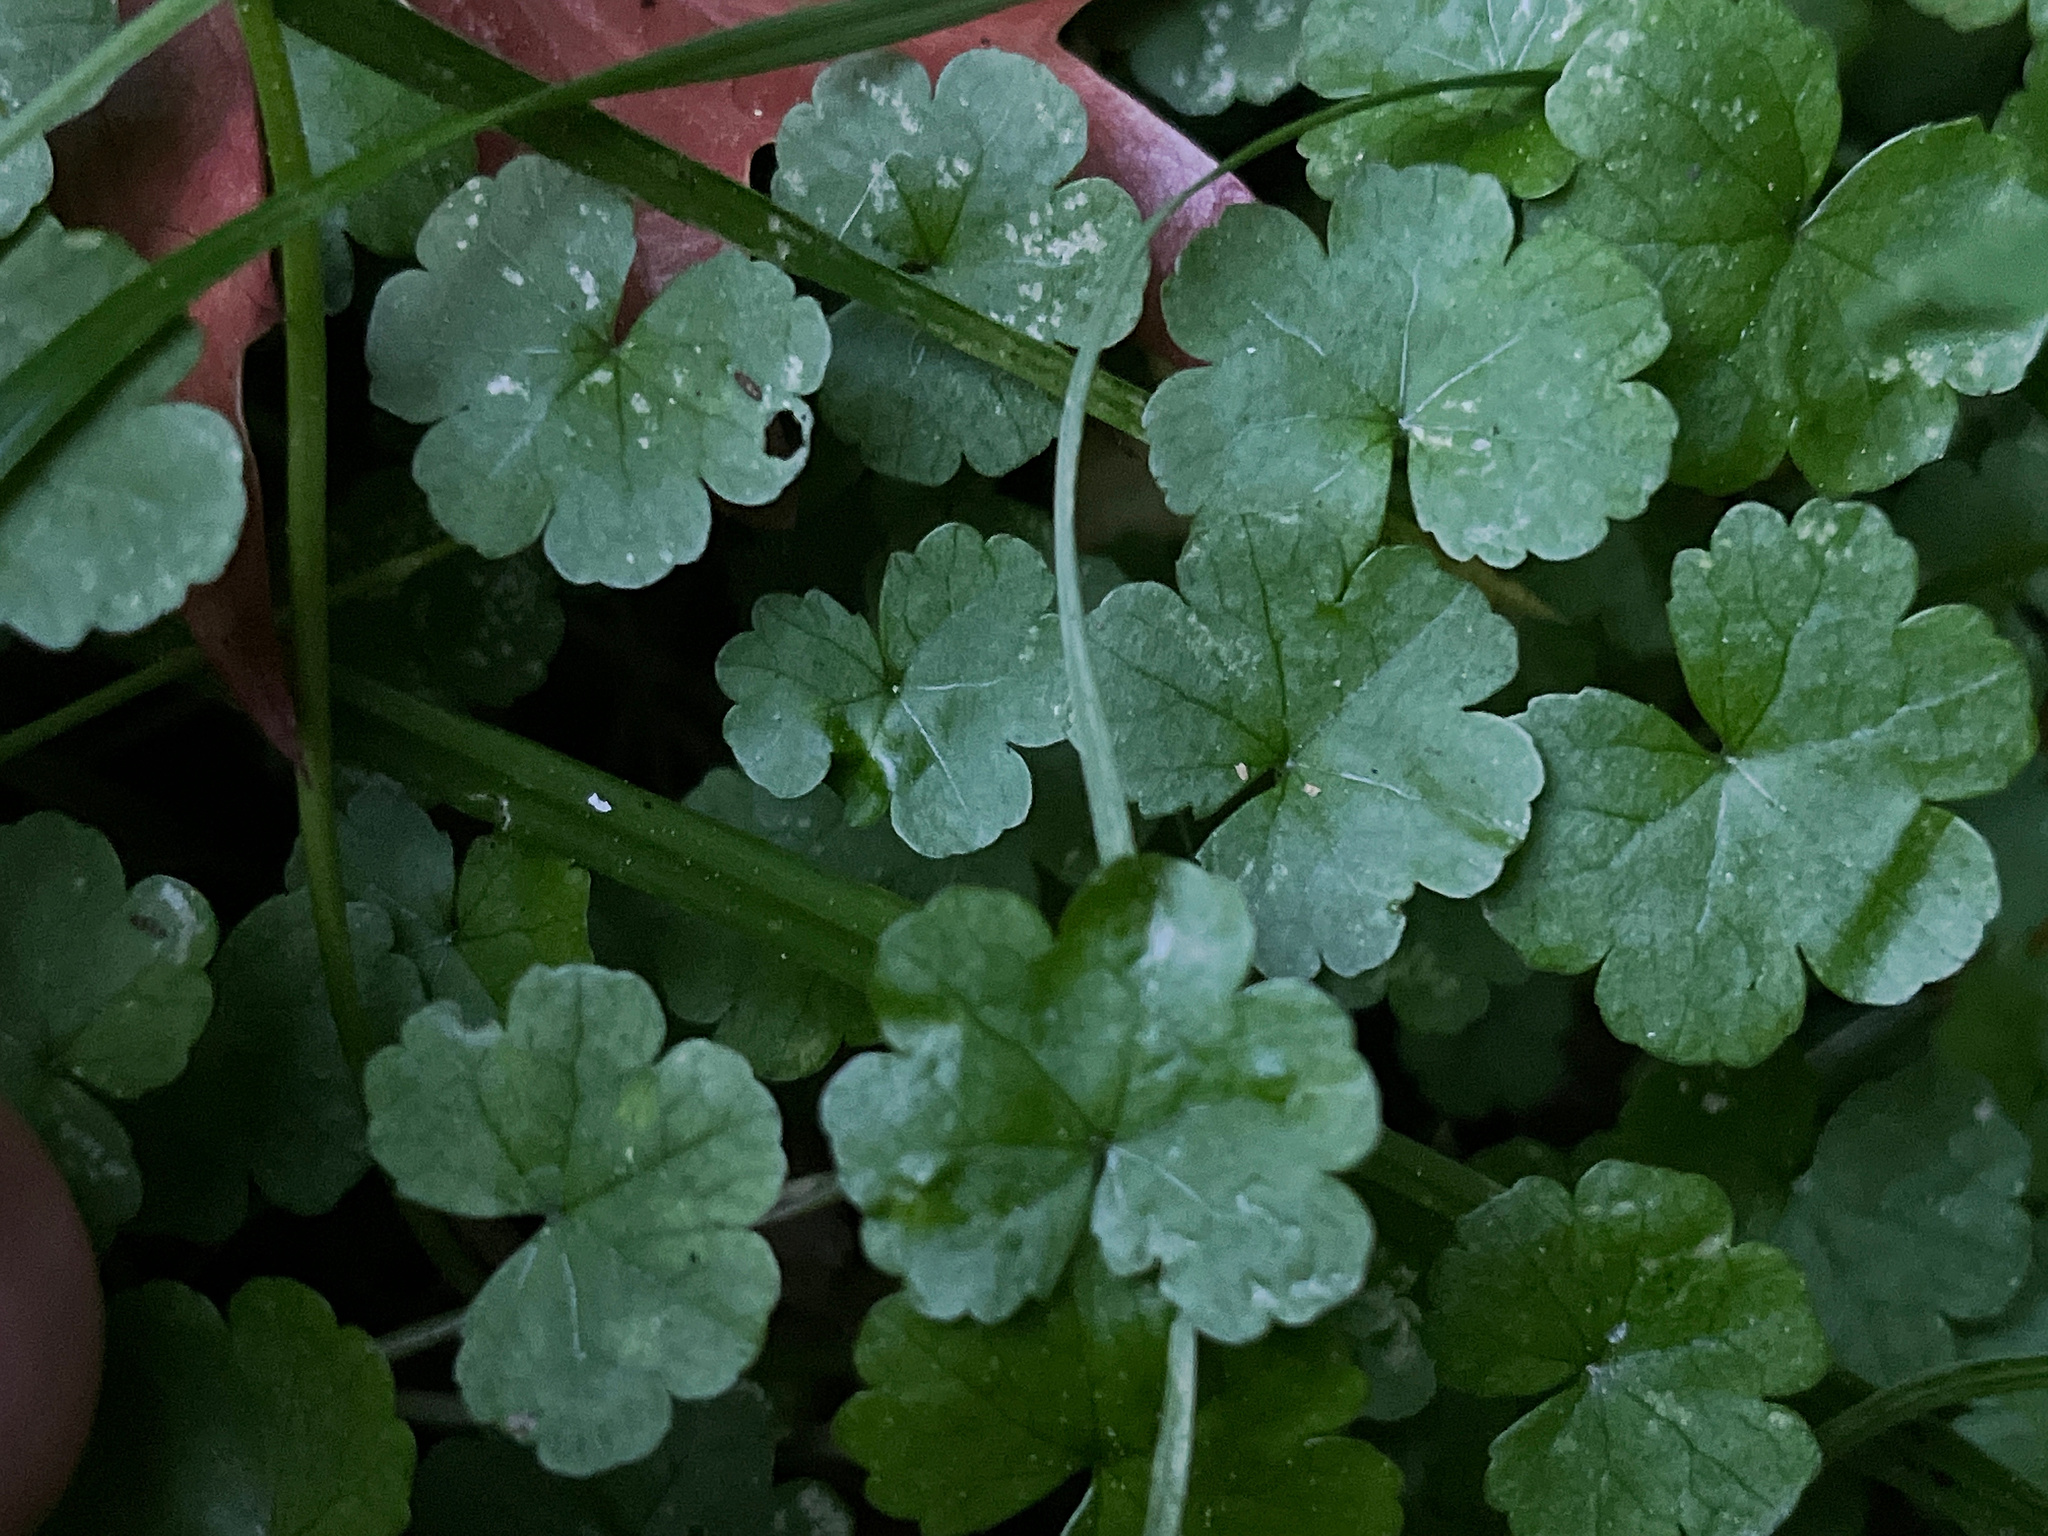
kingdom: Plantae
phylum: Tracheophyta
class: Magnoliopsida
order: Apiales
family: Araliaceae
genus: Hydrocotyle
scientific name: Hydrocotyle heteromeria
